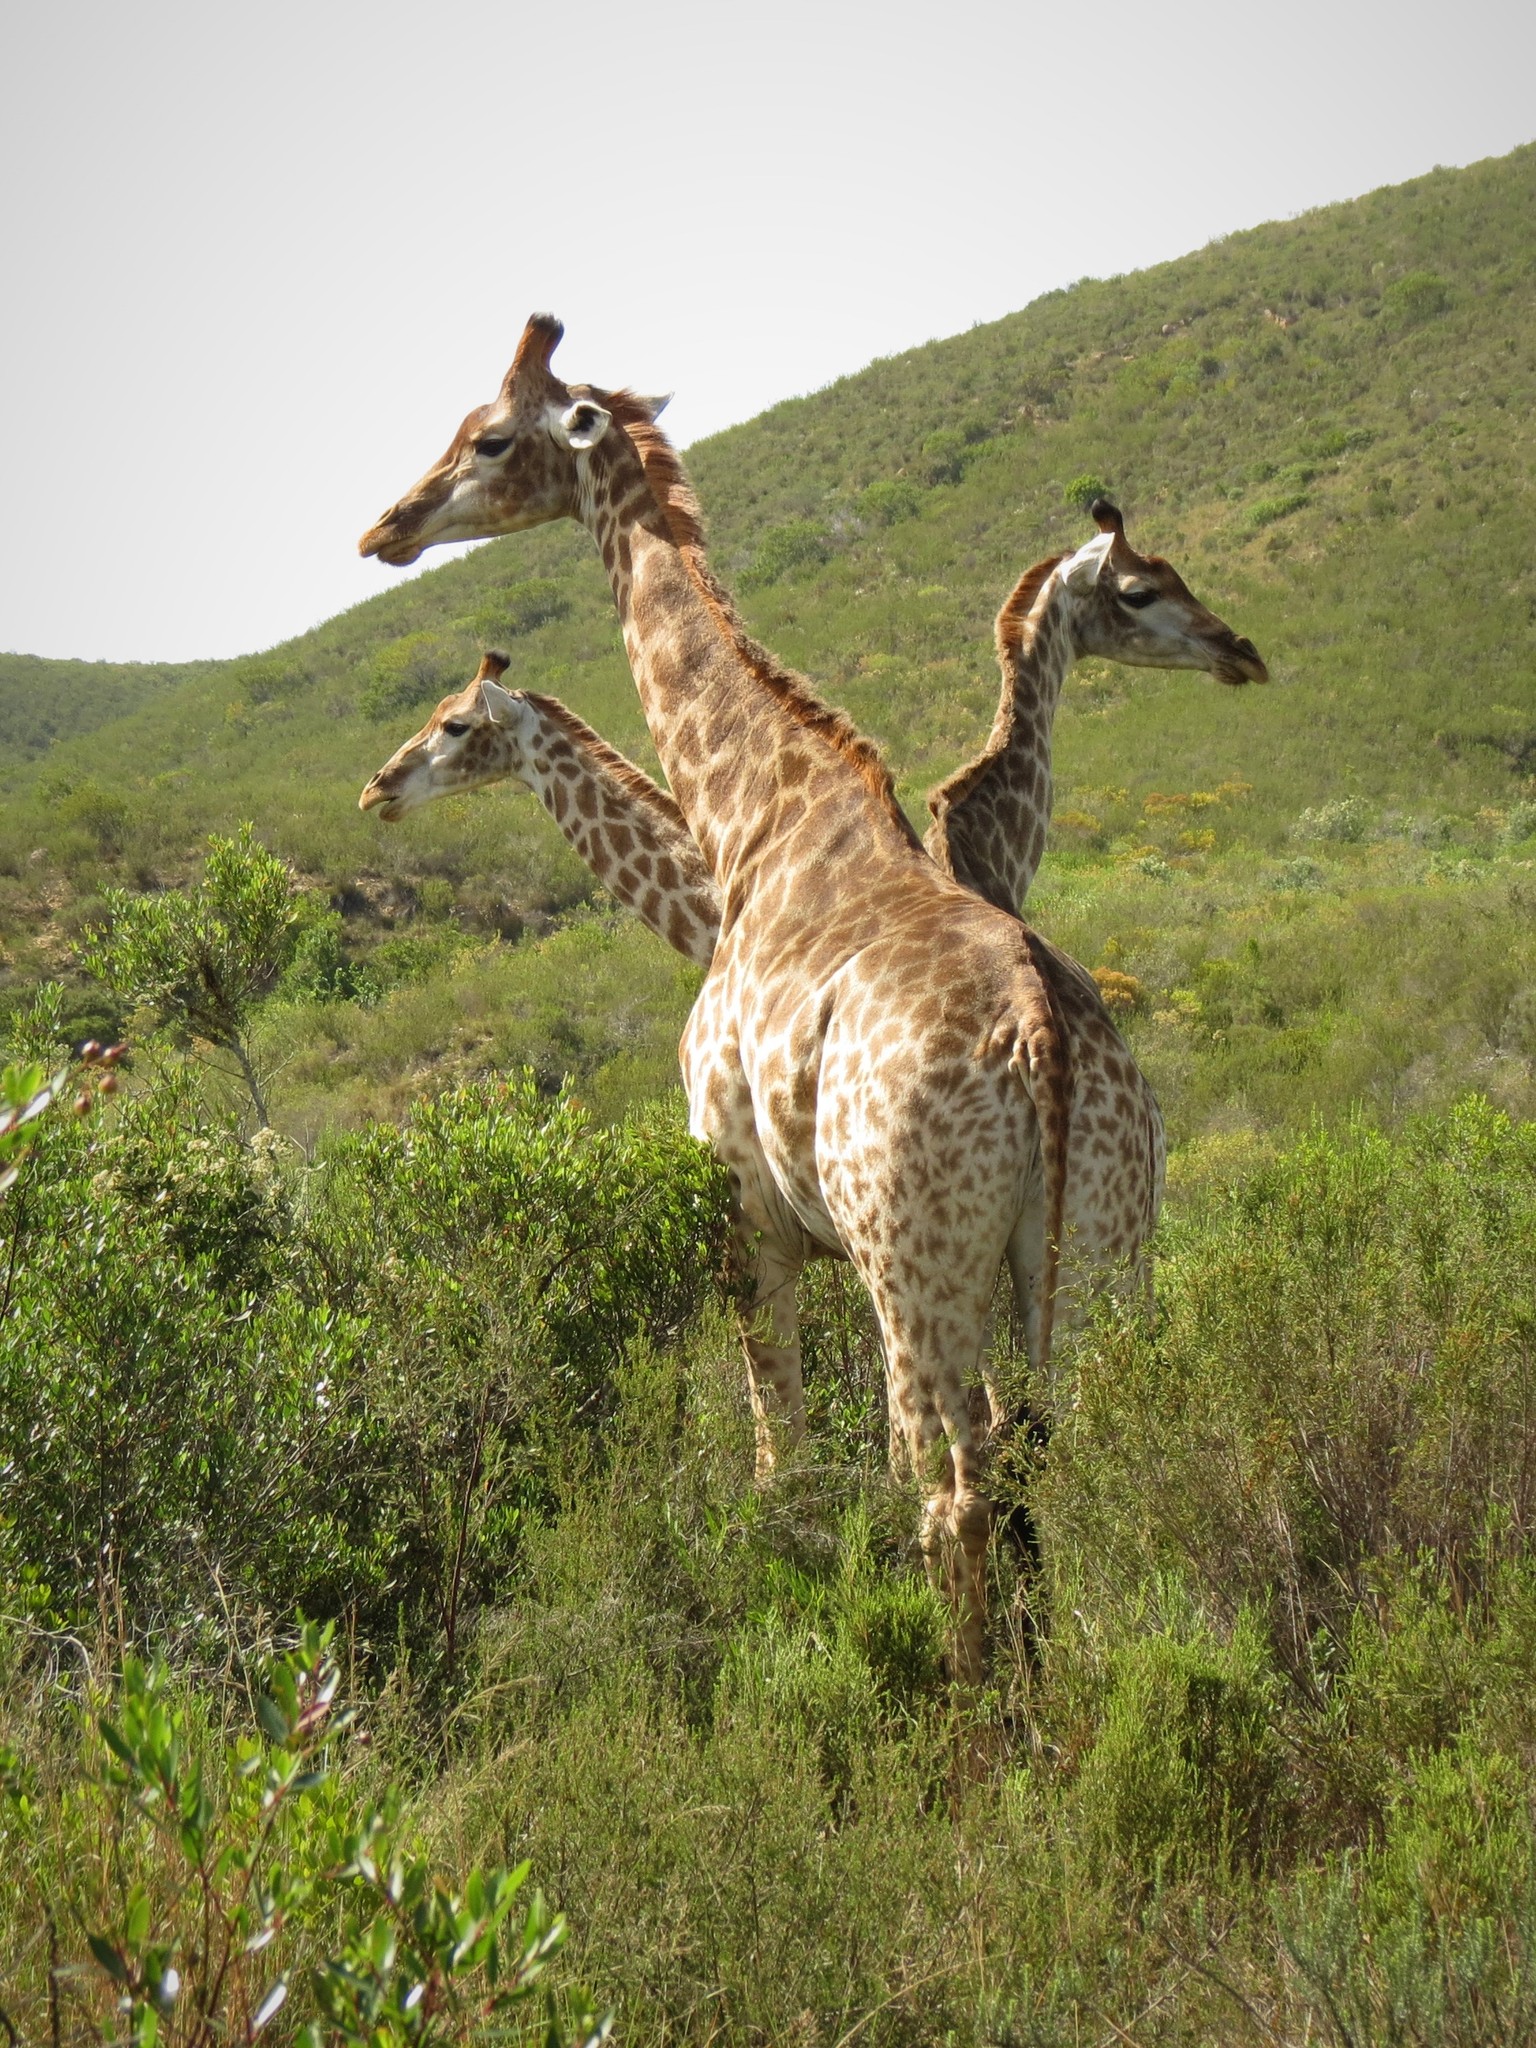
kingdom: Animalia
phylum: Chordata
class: Mammalia
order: Artiodactyla
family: Giraffidae
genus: Giraffa
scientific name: Giraffa giraffa
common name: Southern giraffe
